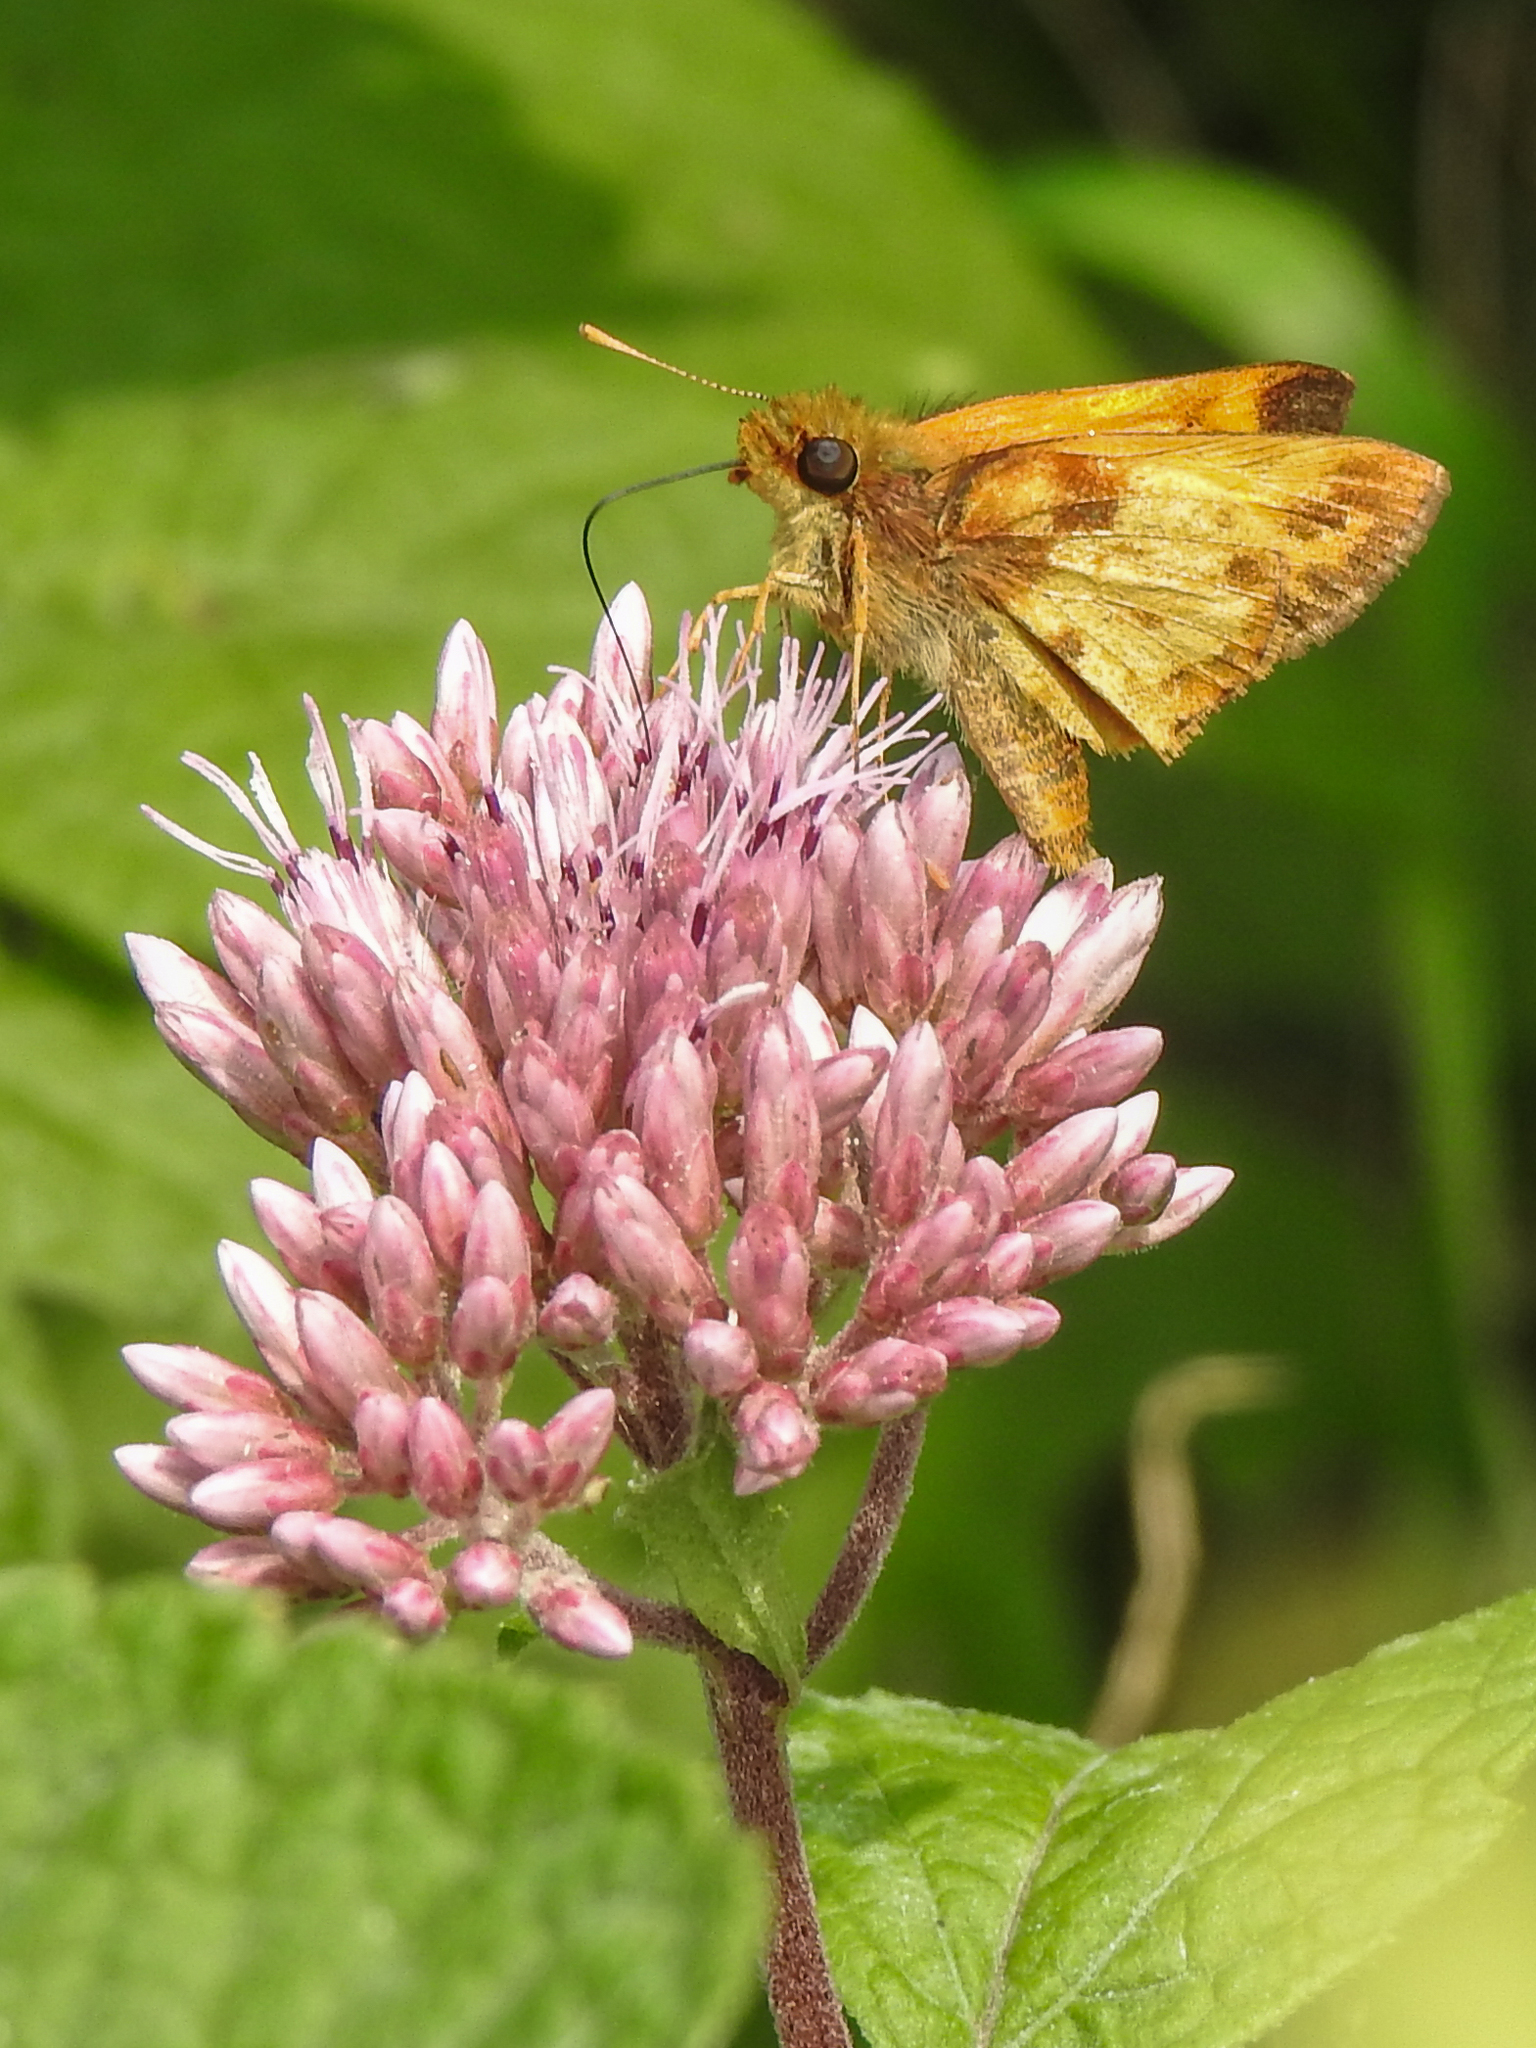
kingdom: Animalia
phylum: Arthropoda
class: Insecta
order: Lepidoptera
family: Hesperiidae
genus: Lon
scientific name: Lon zabulon
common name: Zabulon skipper
